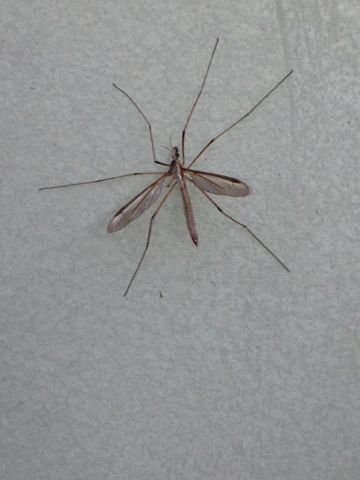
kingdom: Animalia
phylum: Arthropoda
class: Insecta
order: Diptera
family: Tipulidae
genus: Tipula
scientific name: Tipula oleracea
